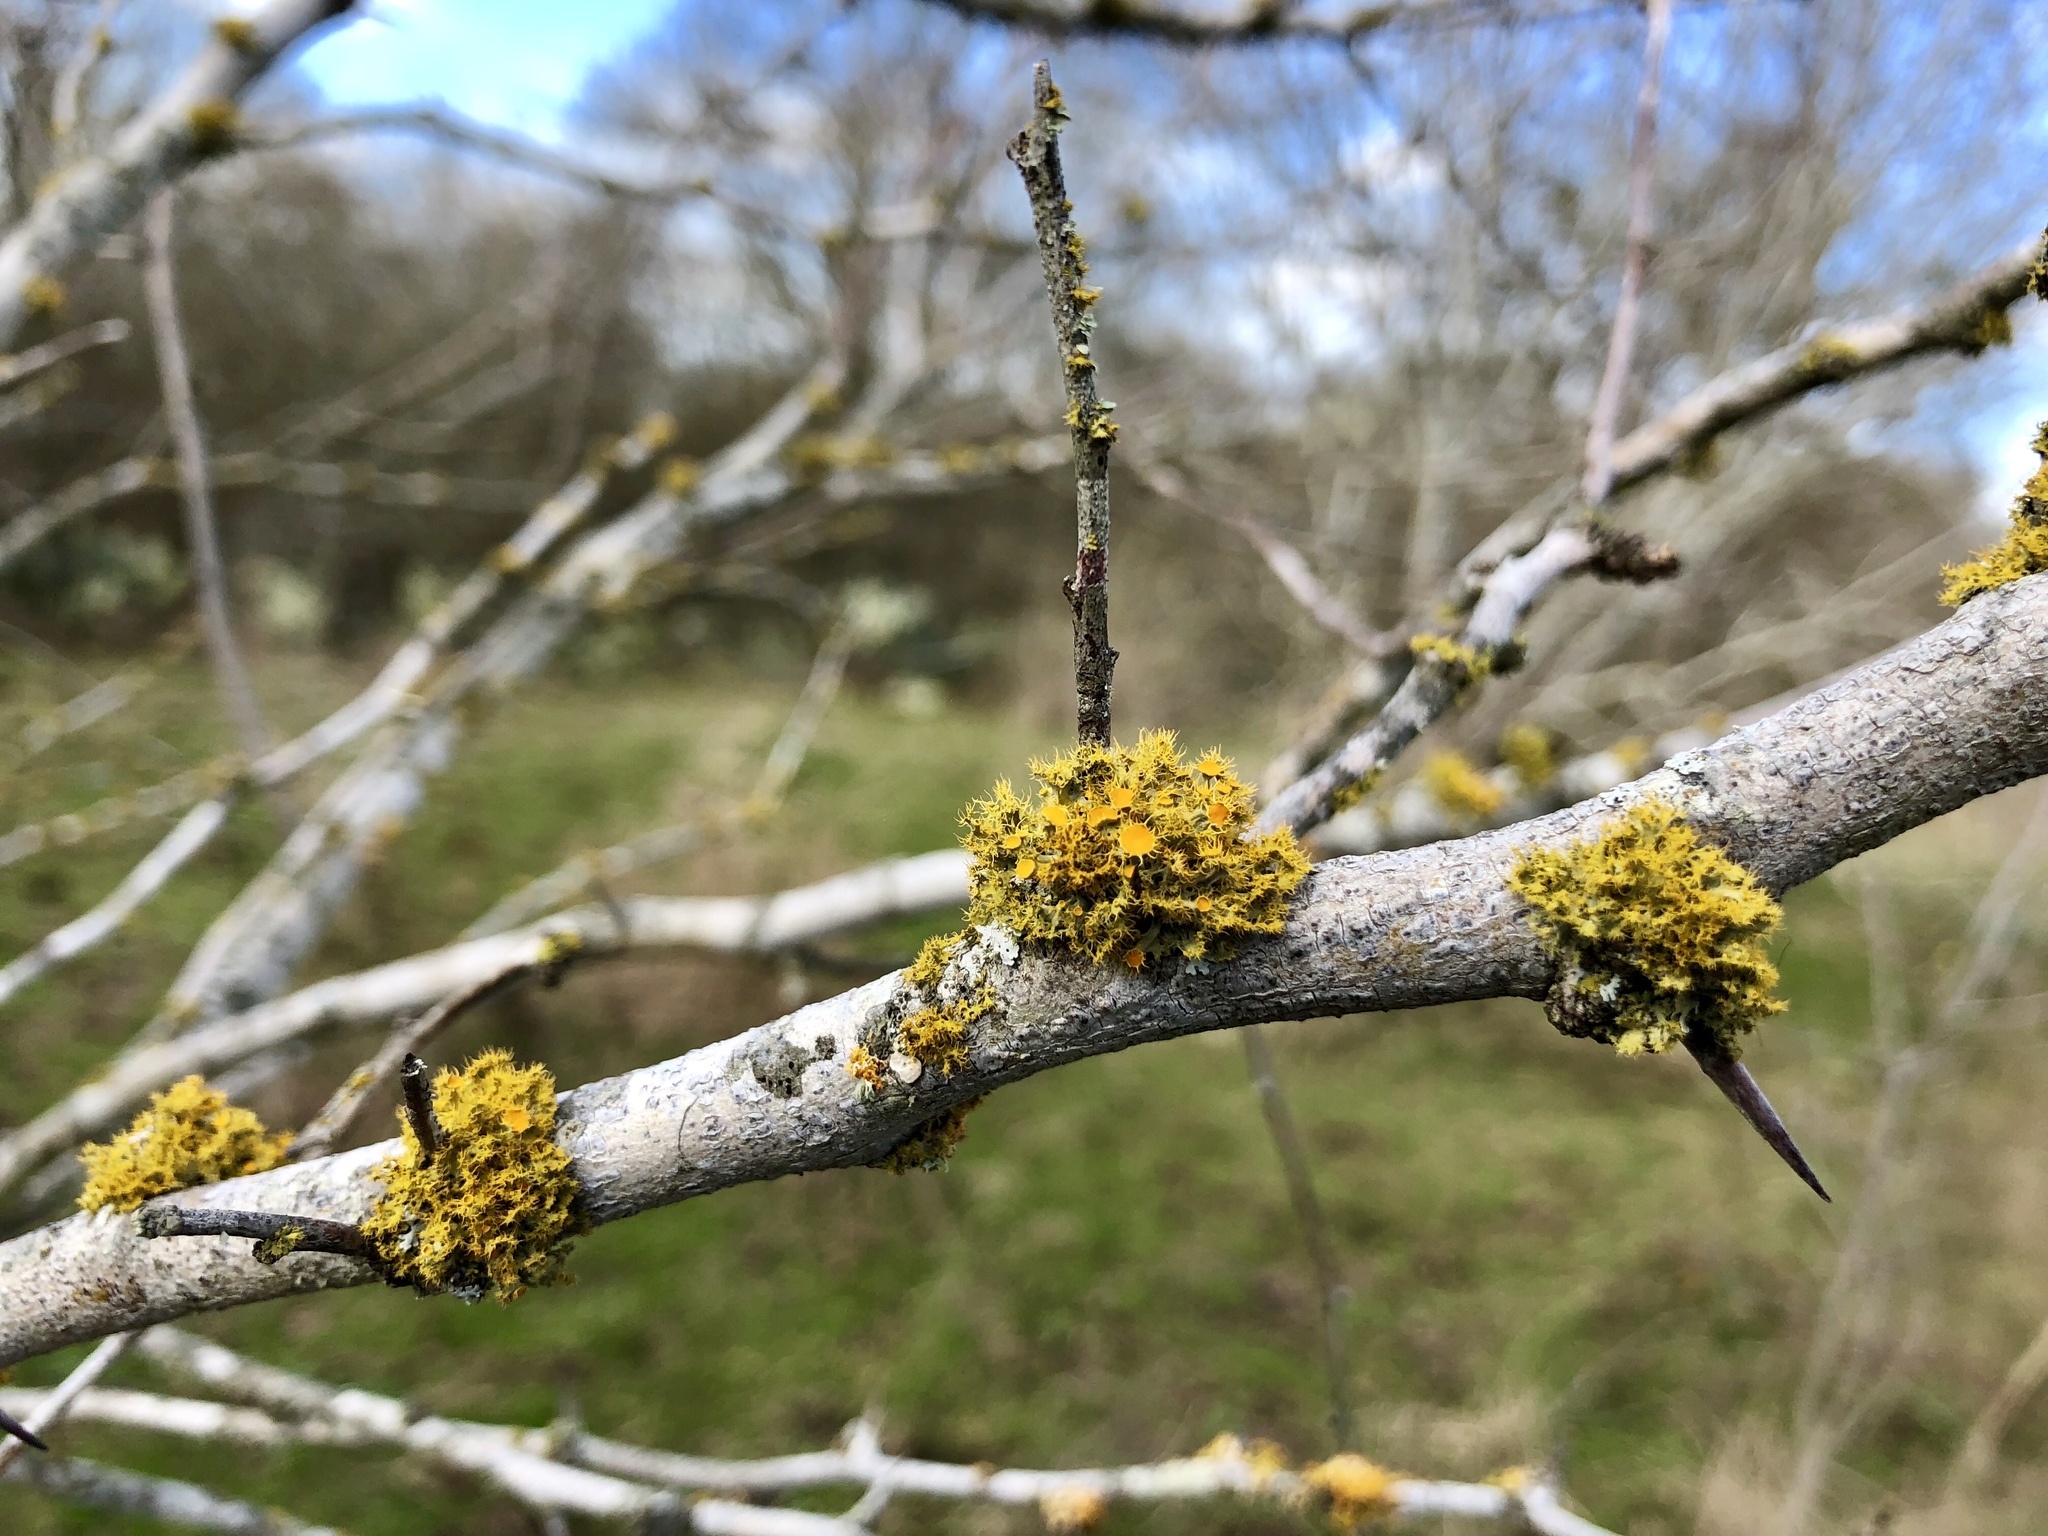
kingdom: Fungi
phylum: Ascomycota
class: Lecanoromycetes
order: Teloschistales
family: Teloschistaceae
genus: Niorma
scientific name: Niorma chrysophthalma
